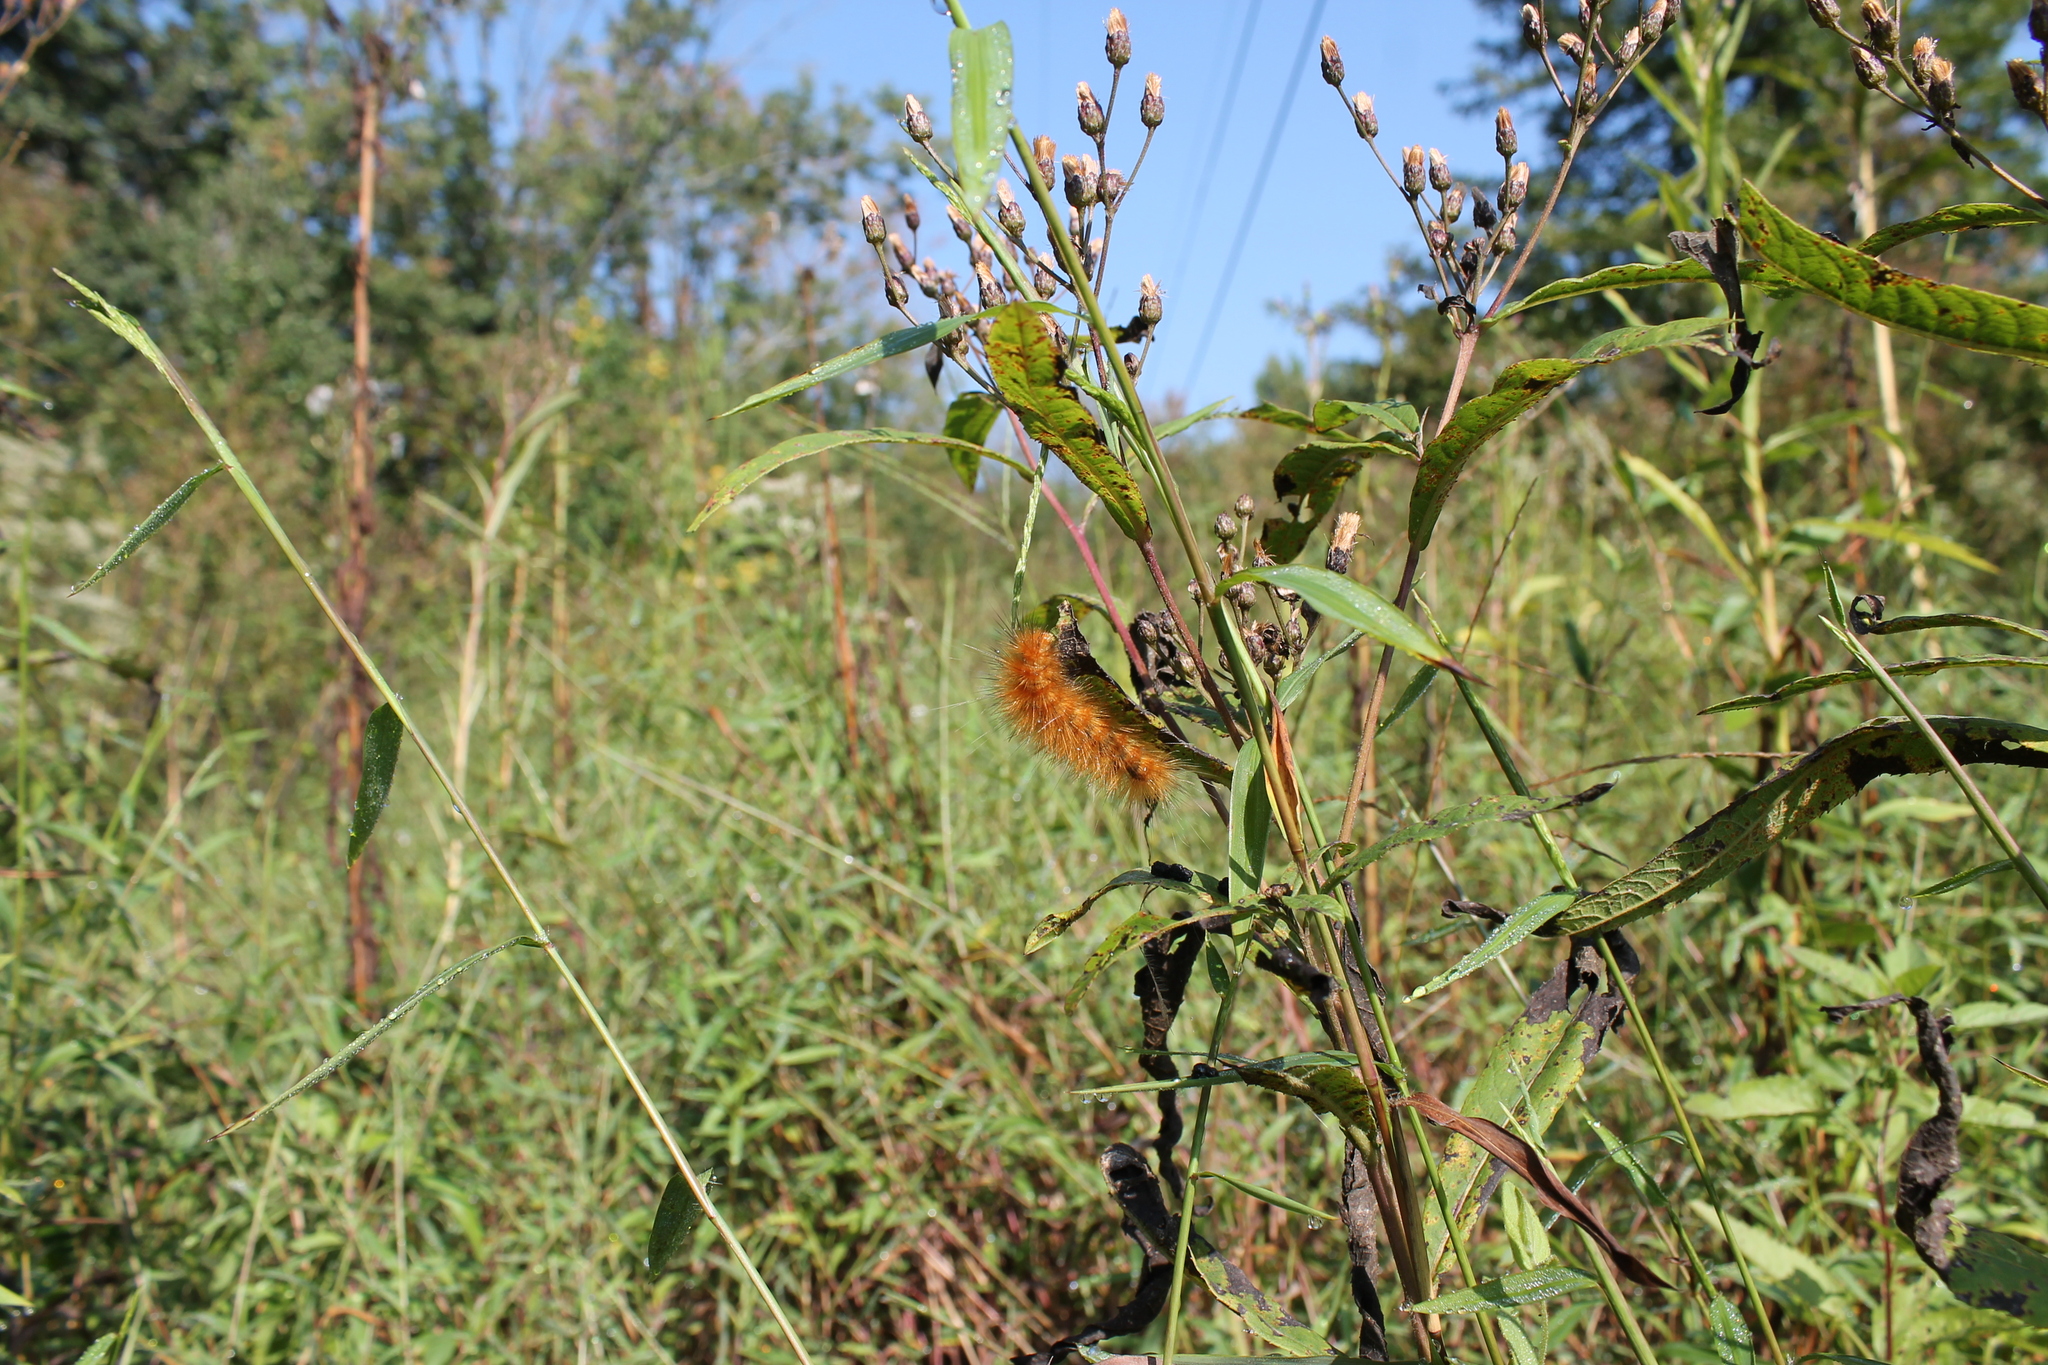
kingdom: Animalia
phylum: Arthropoda
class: Insecta
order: Lepidoptera
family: Erebidae
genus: Spilosoma
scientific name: Spilosoma virginica
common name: Virginia tiger moth
